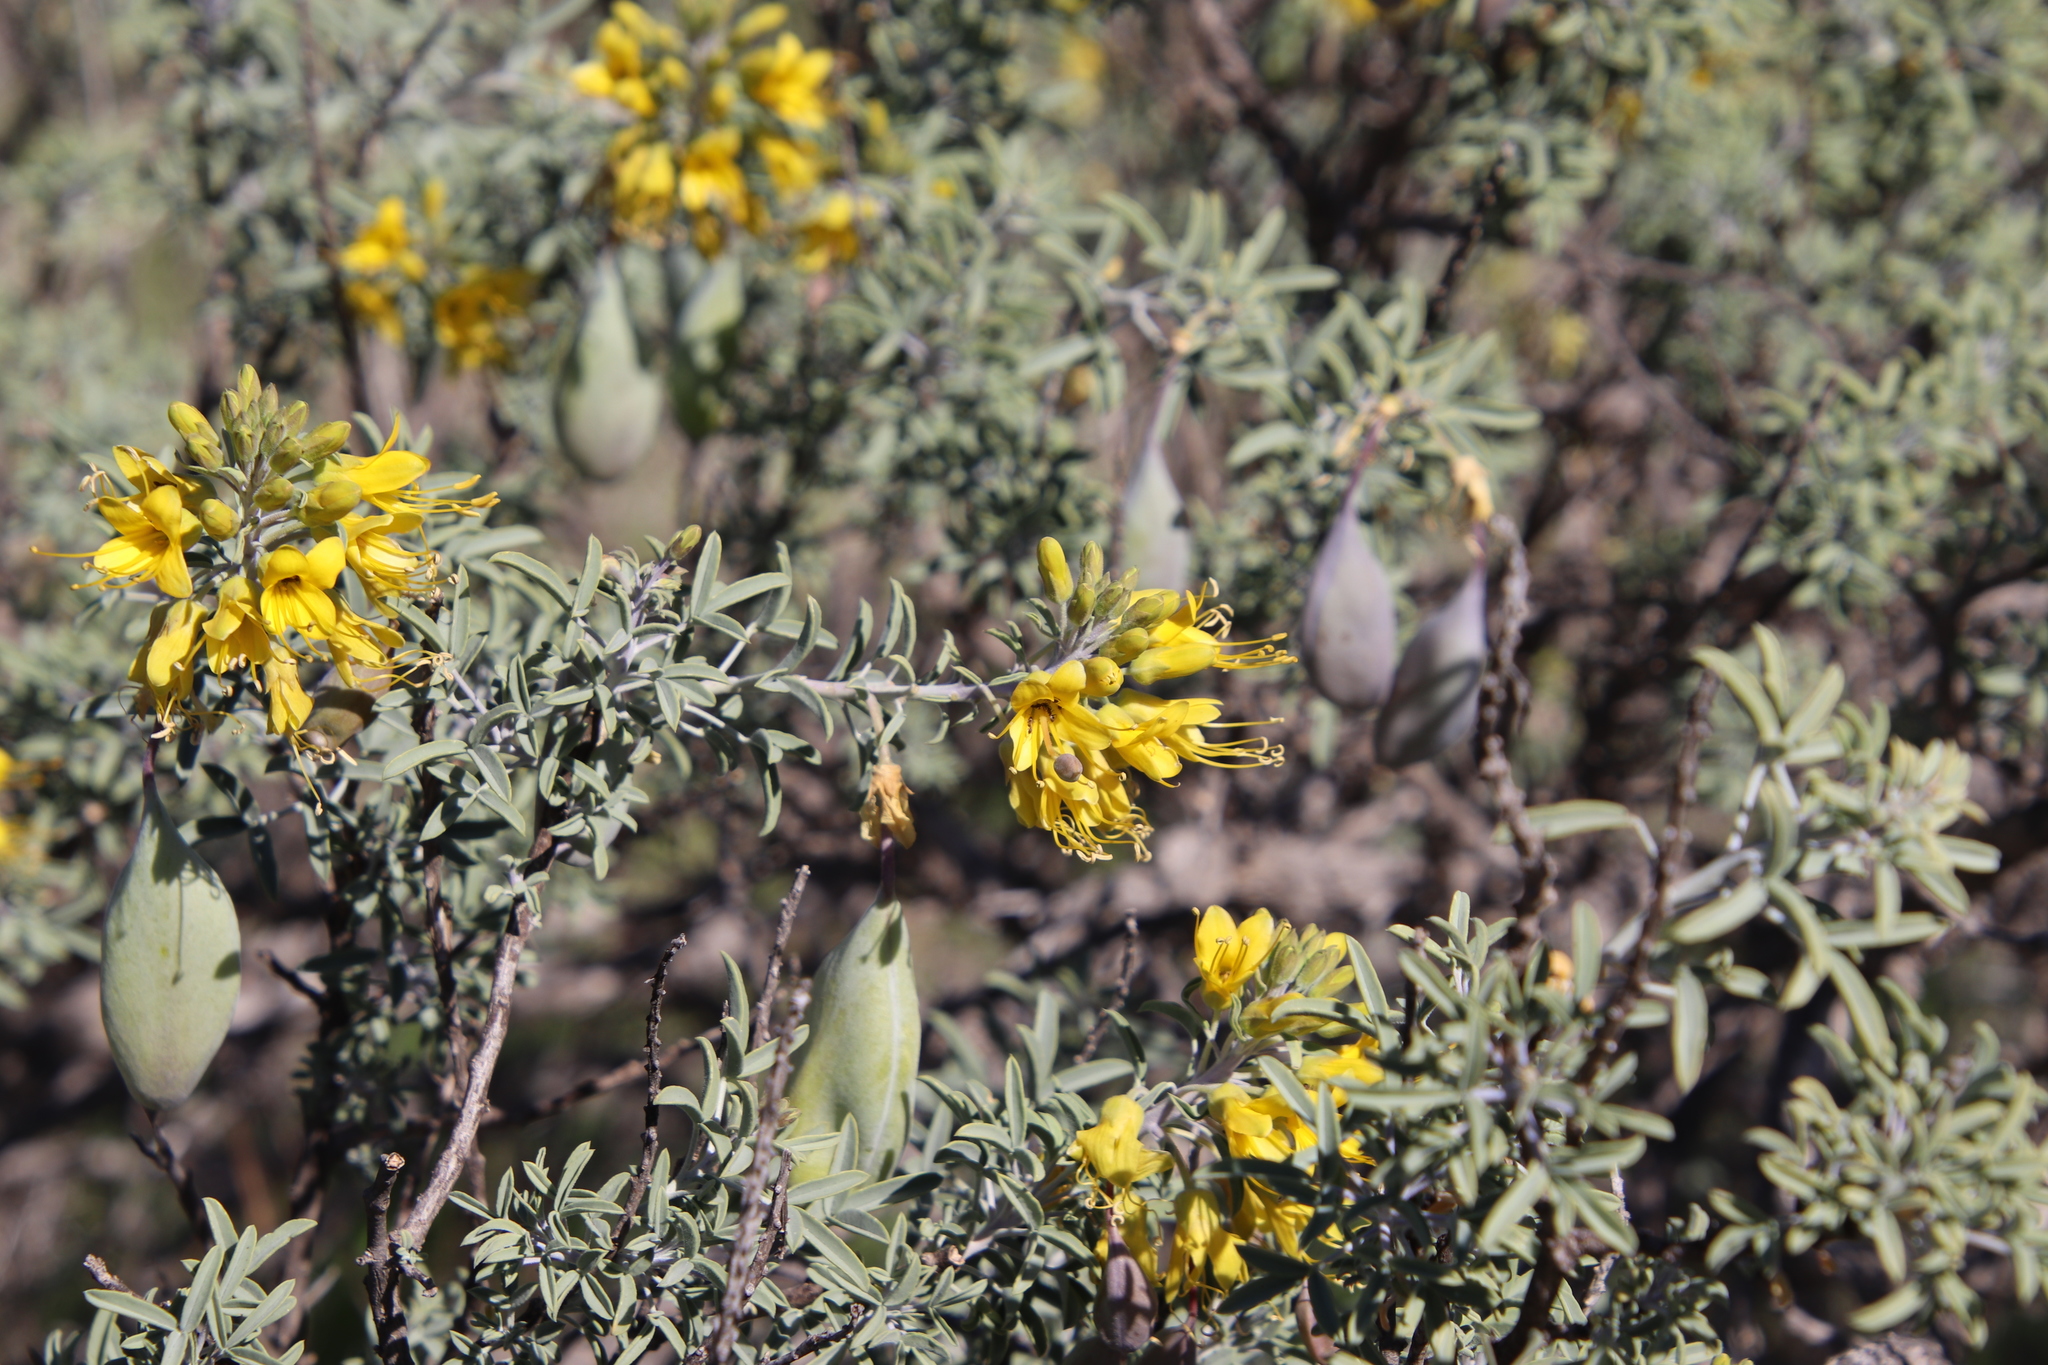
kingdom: Plantae
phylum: Tracheophyta
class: Magnoliopsida
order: Brassicales
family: Cleomaceae
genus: Cleomella
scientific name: Cleomella arborea
